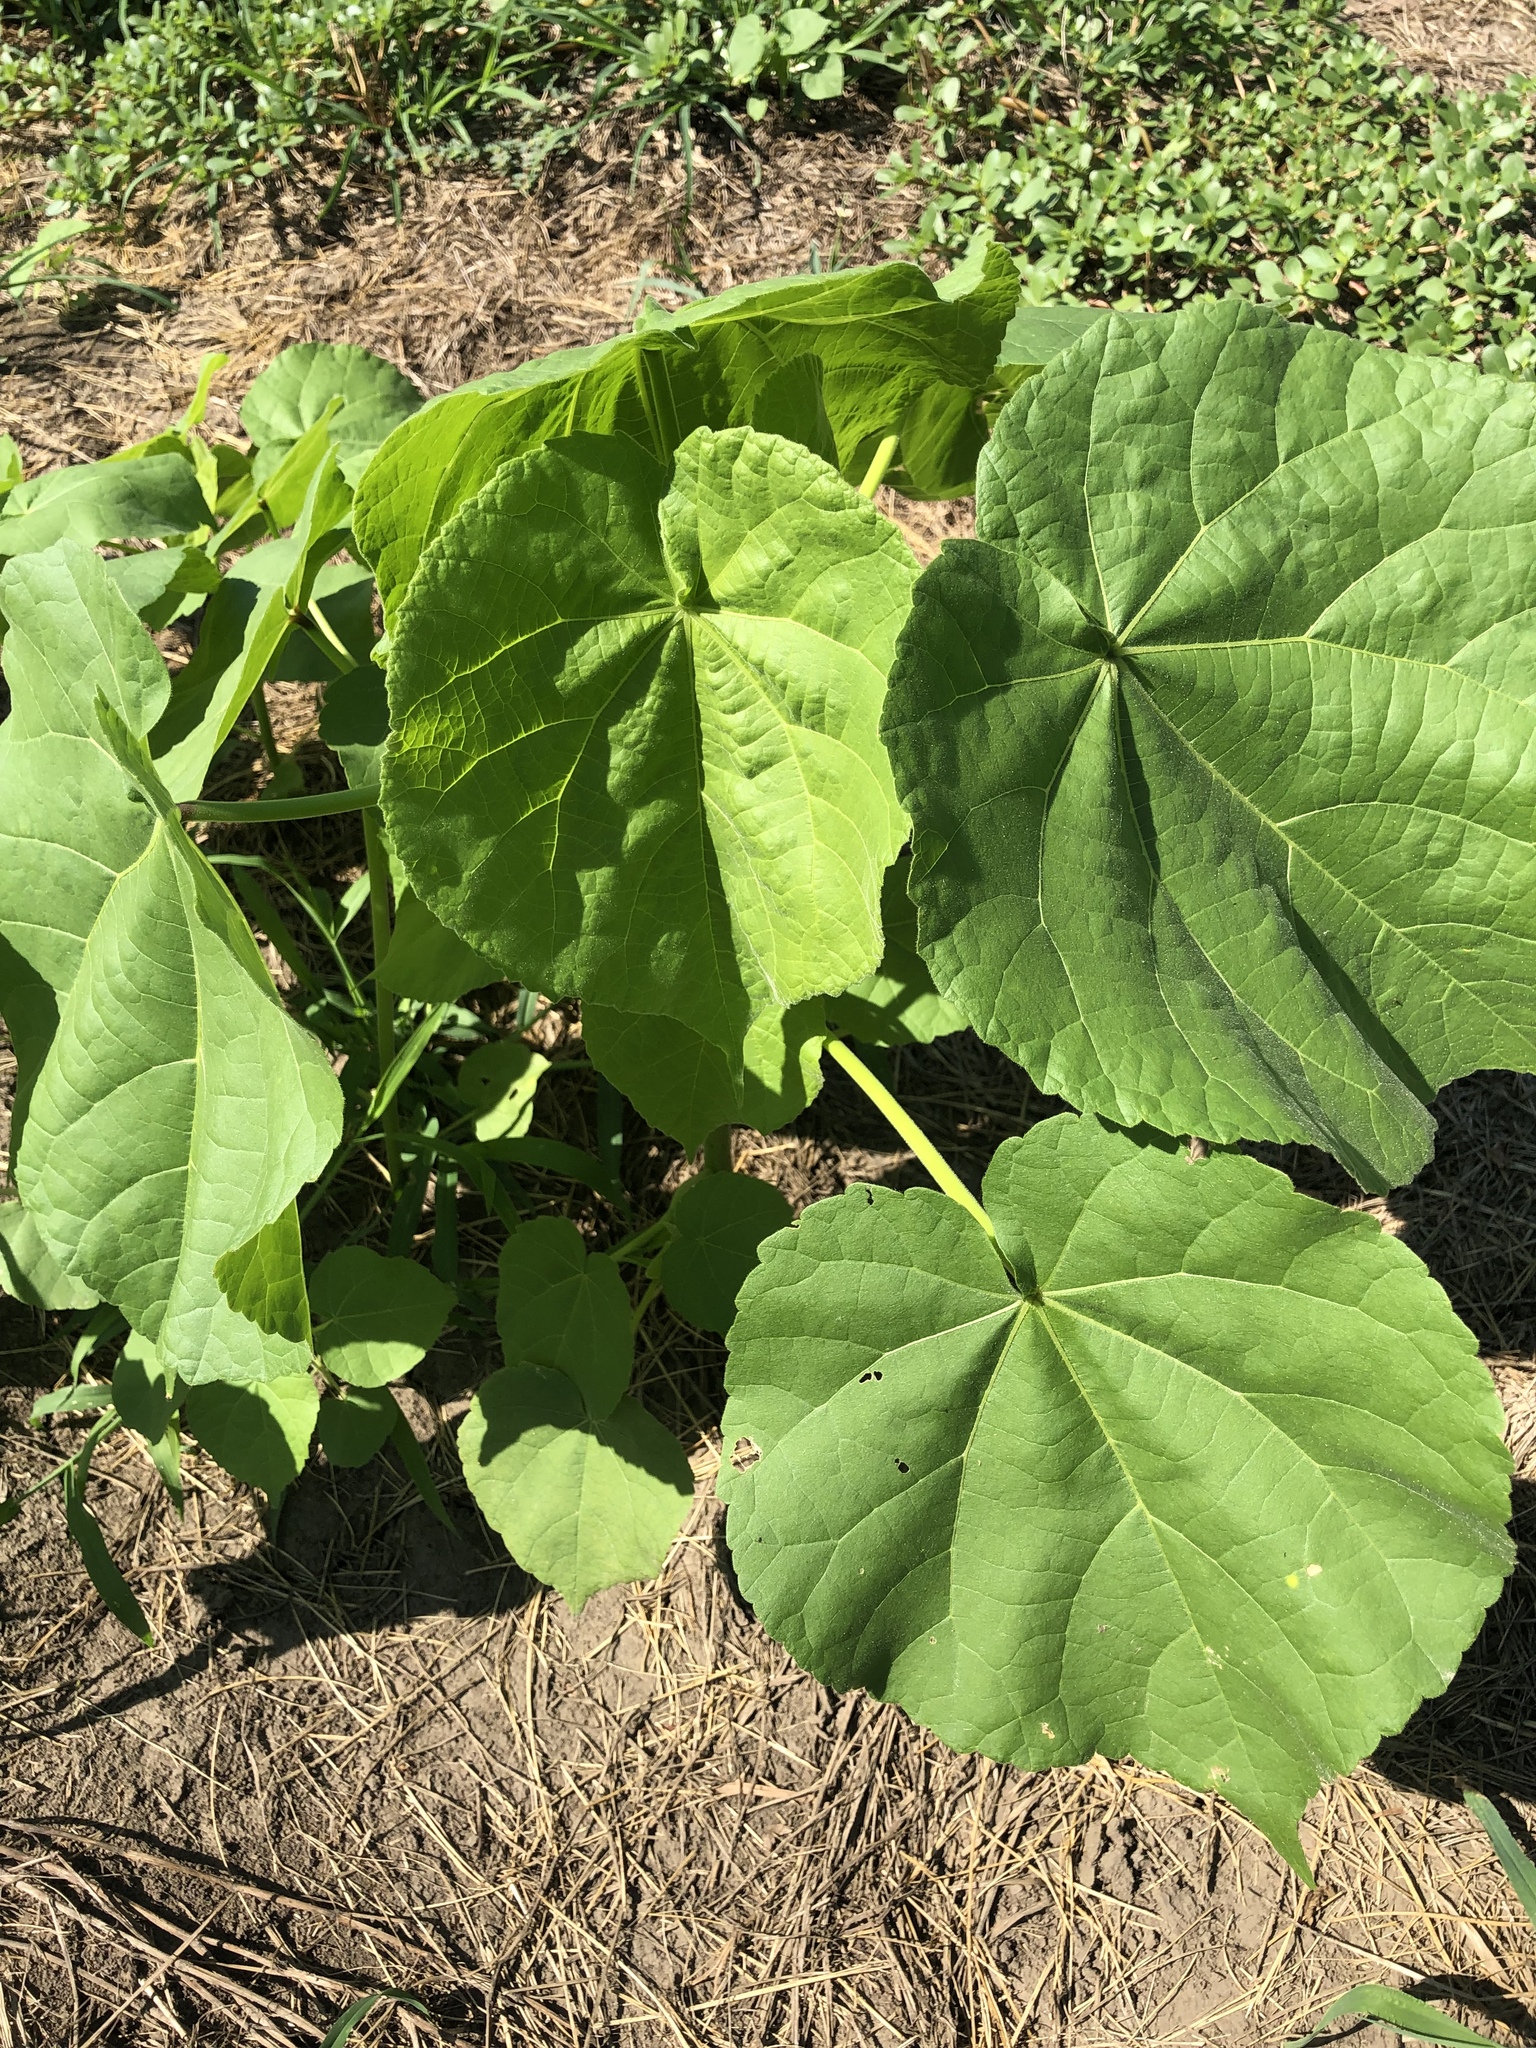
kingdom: Plantae
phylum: Tracheophyta
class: Magnoliopsida
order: Malvales
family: Malvaceae
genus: Abutilon
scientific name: Abutilon theophrasti
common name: Velvetleaf
